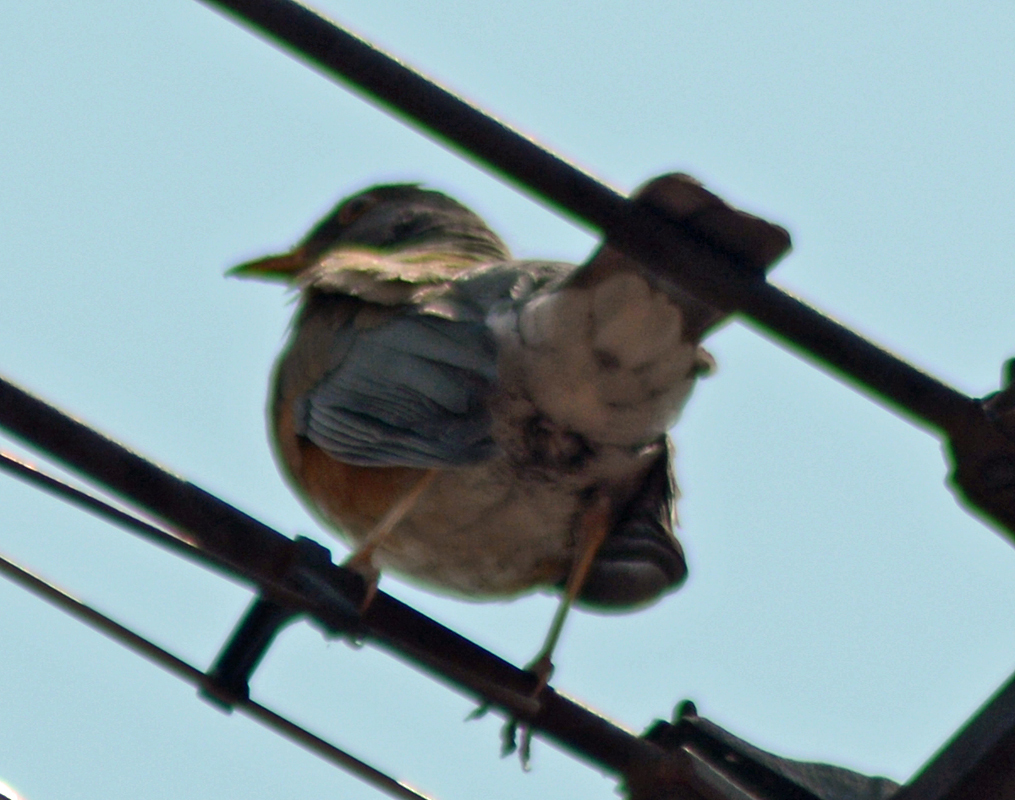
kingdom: Animalia
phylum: Chordata
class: Aves
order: Passeriformes
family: Turdidae
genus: Turdus
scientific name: Turdus rufopalliatus
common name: Rufous-backed robin
